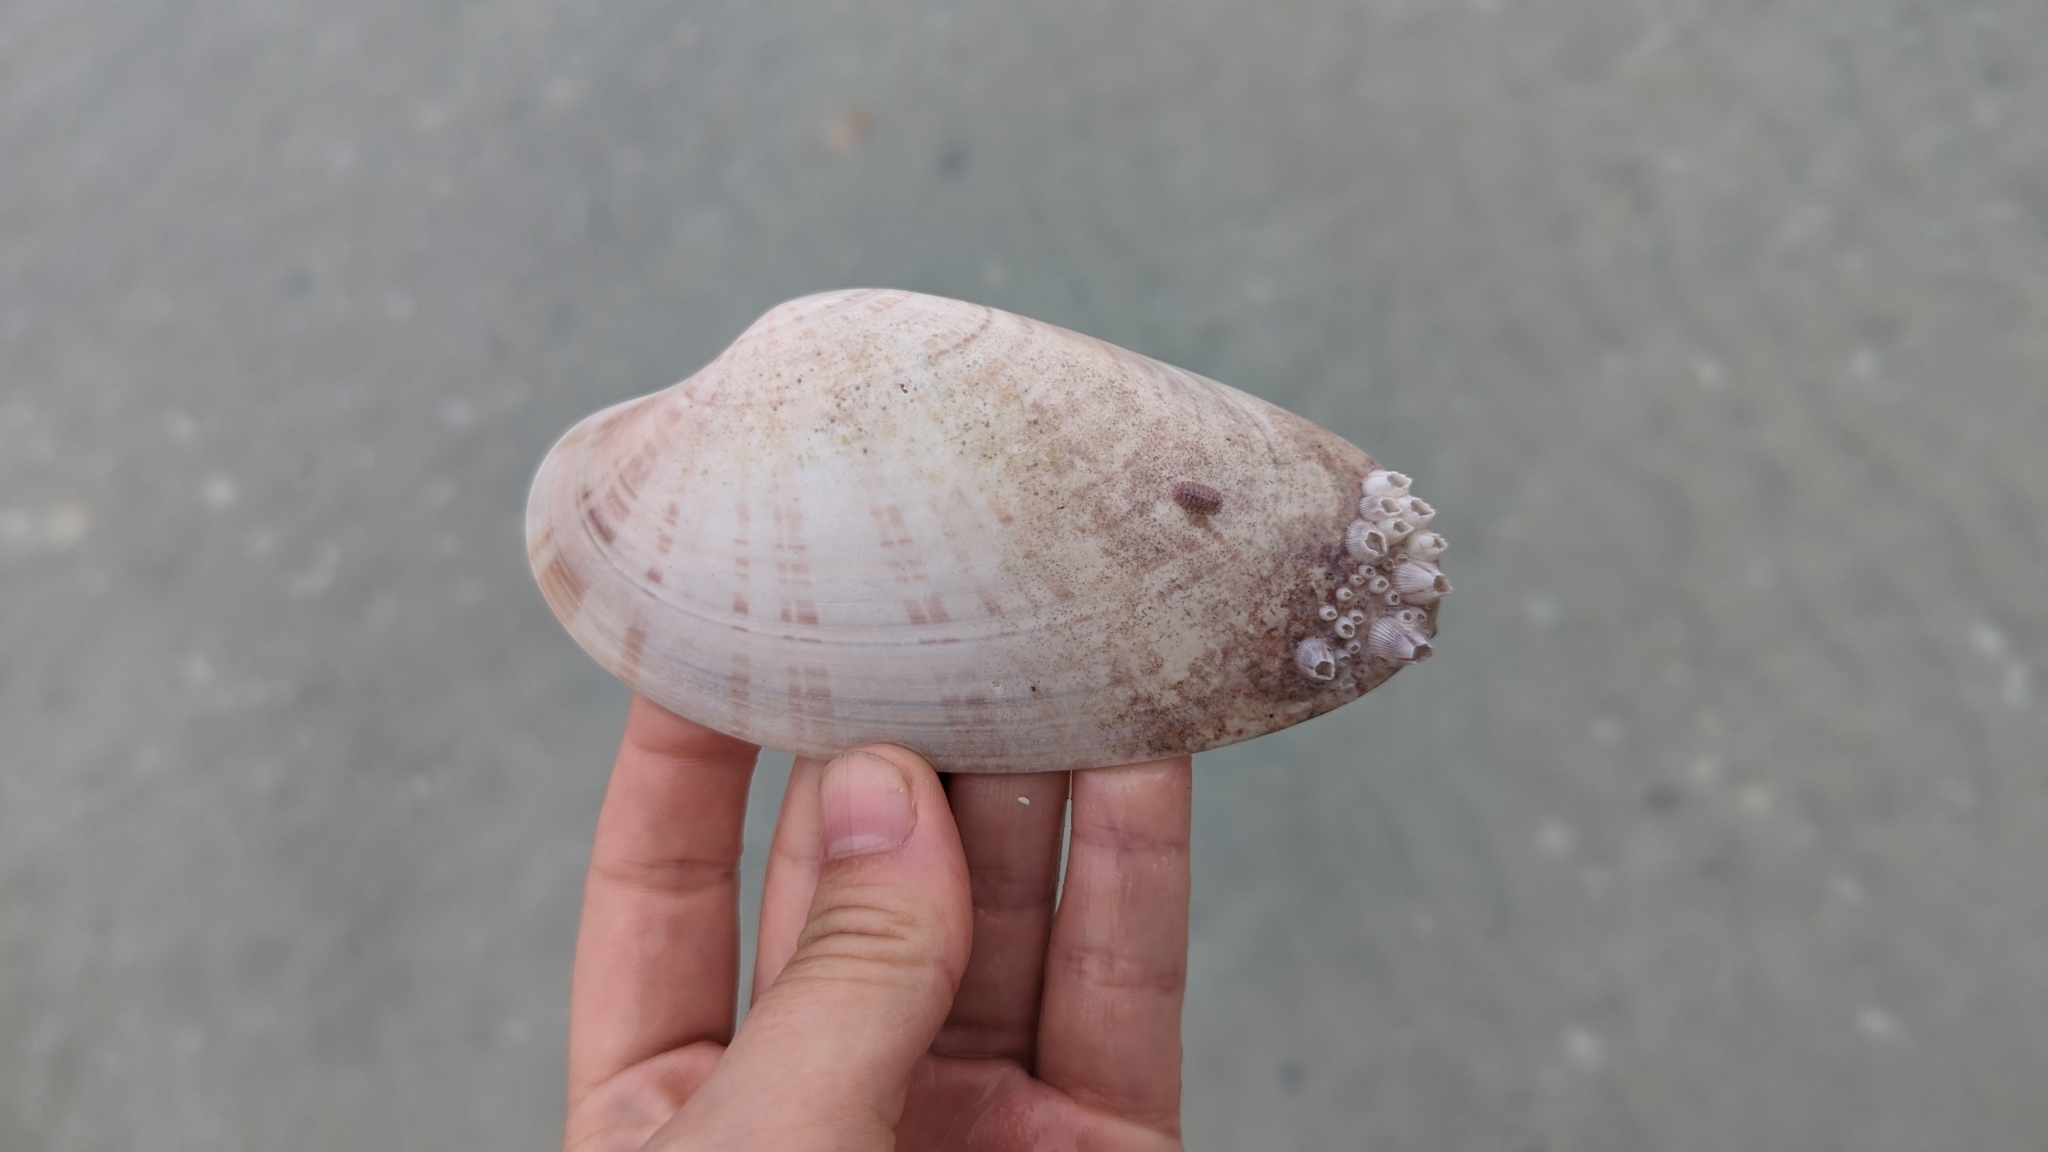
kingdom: Animalia
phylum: Mollusca
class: Bivalvia
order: Venerida
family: Veneridae
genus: Macrocallista
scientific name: Macrocallista nimbosa
